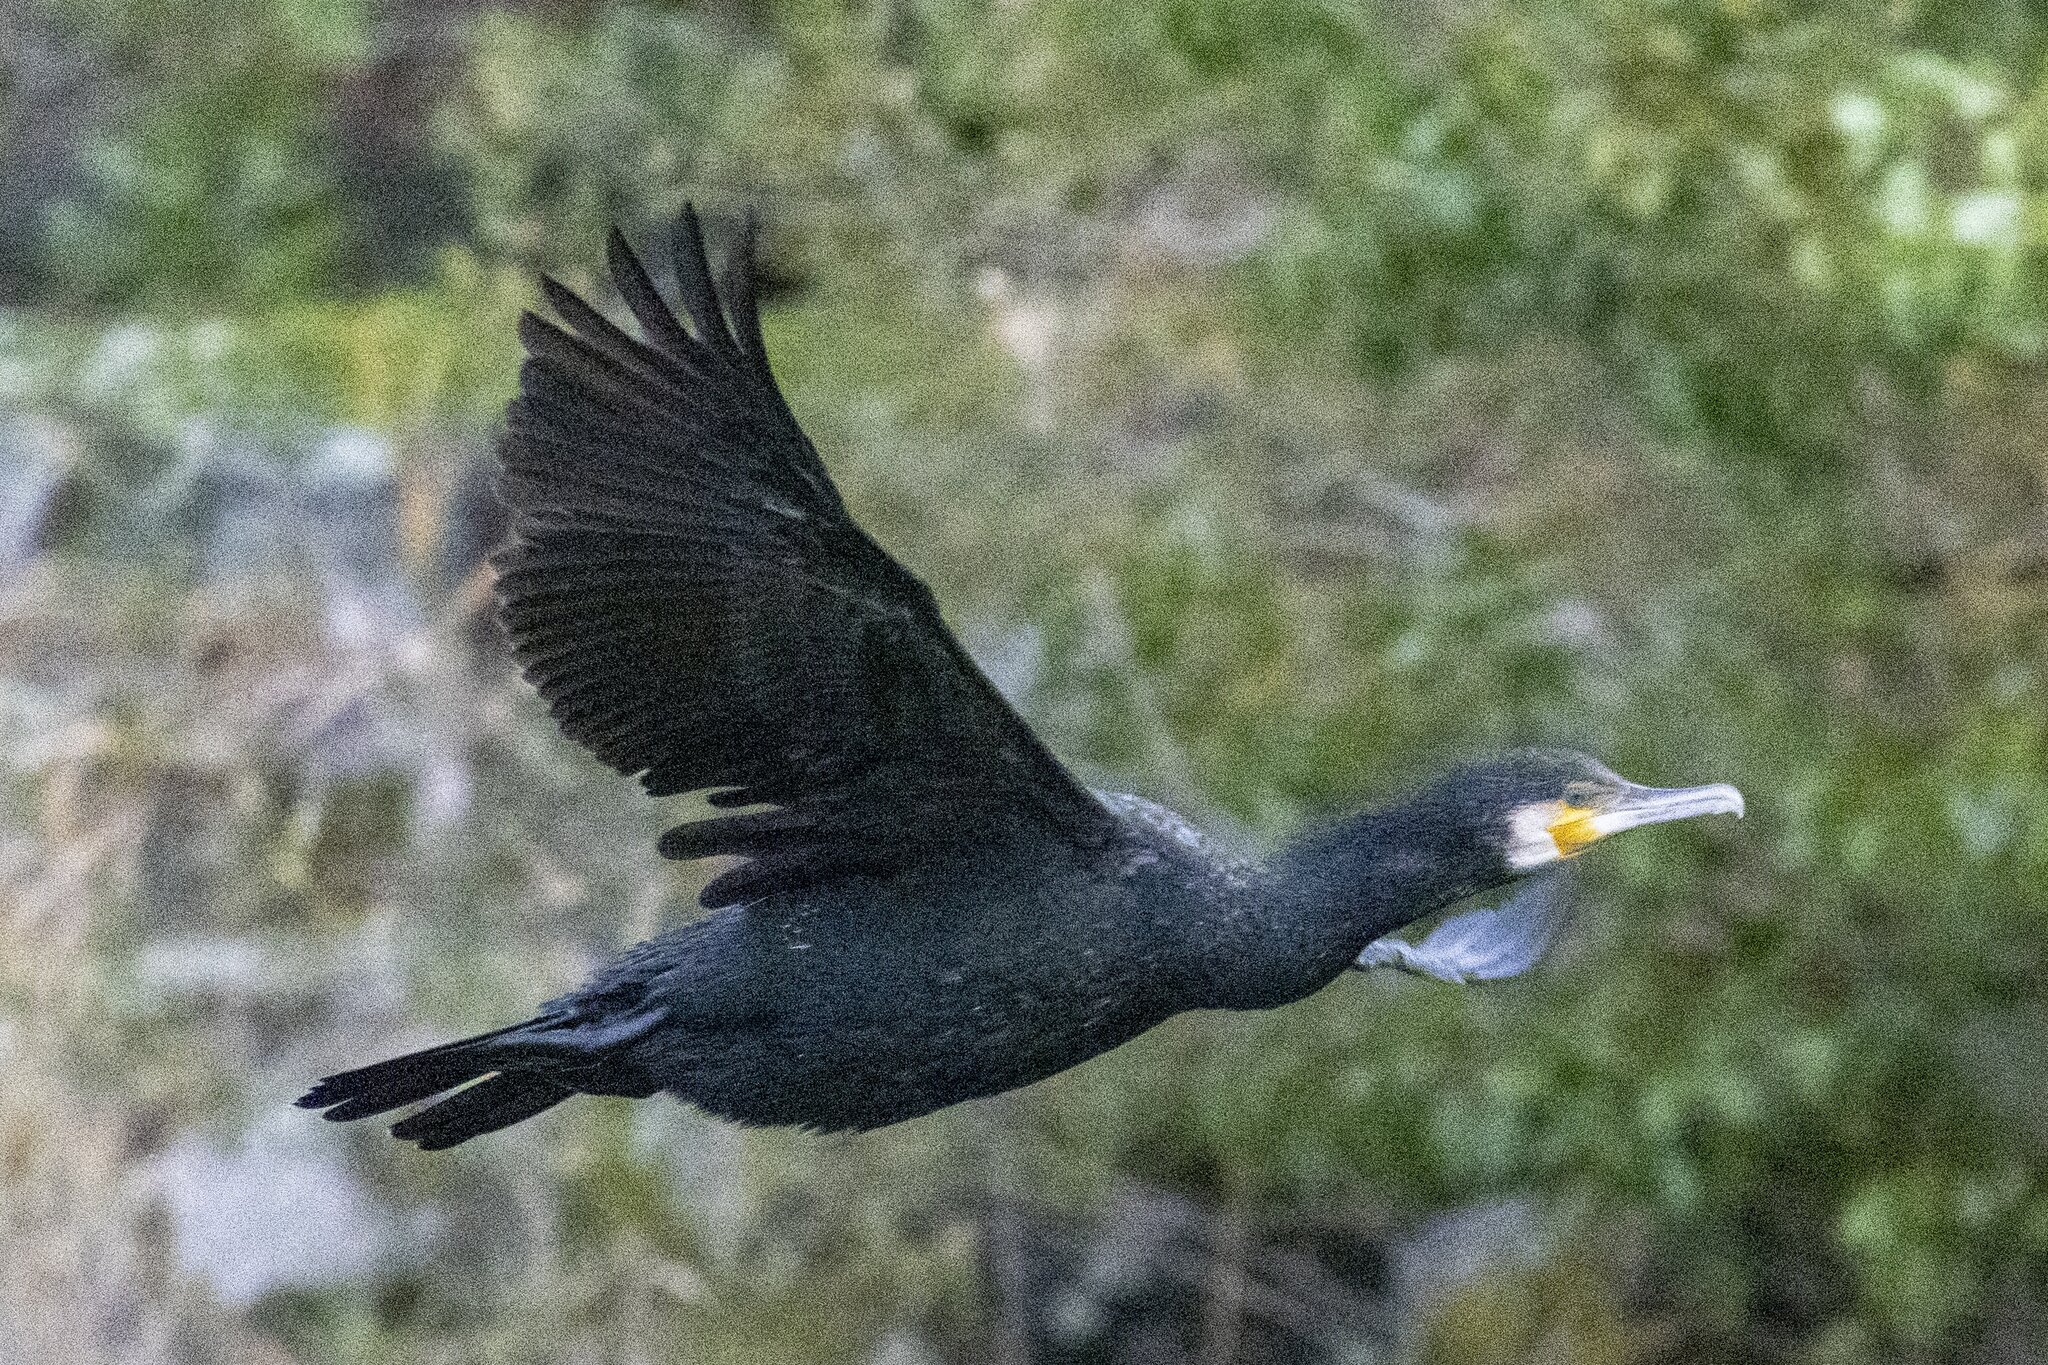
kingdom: Animalia
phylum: Chordata
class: Aves
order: Suliformes
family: Phalacrocoracidae
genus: Phalacrocorax
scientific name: Phalacrocorax carbo
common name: Great cormorant
